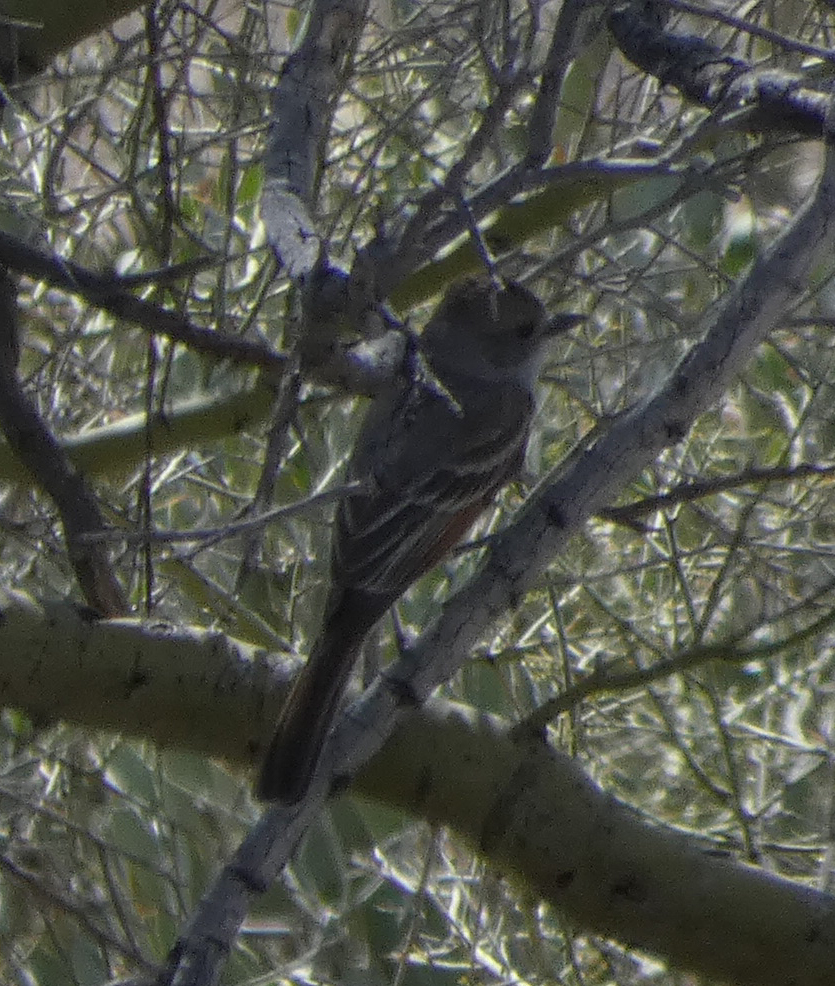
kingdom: Animalia
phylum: Chordata
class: Aves
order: Passeriformes
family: Tyrannidae
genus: Myiarchus
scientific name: Myiarchus cinerascens
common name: Ash-throated flycatcher
